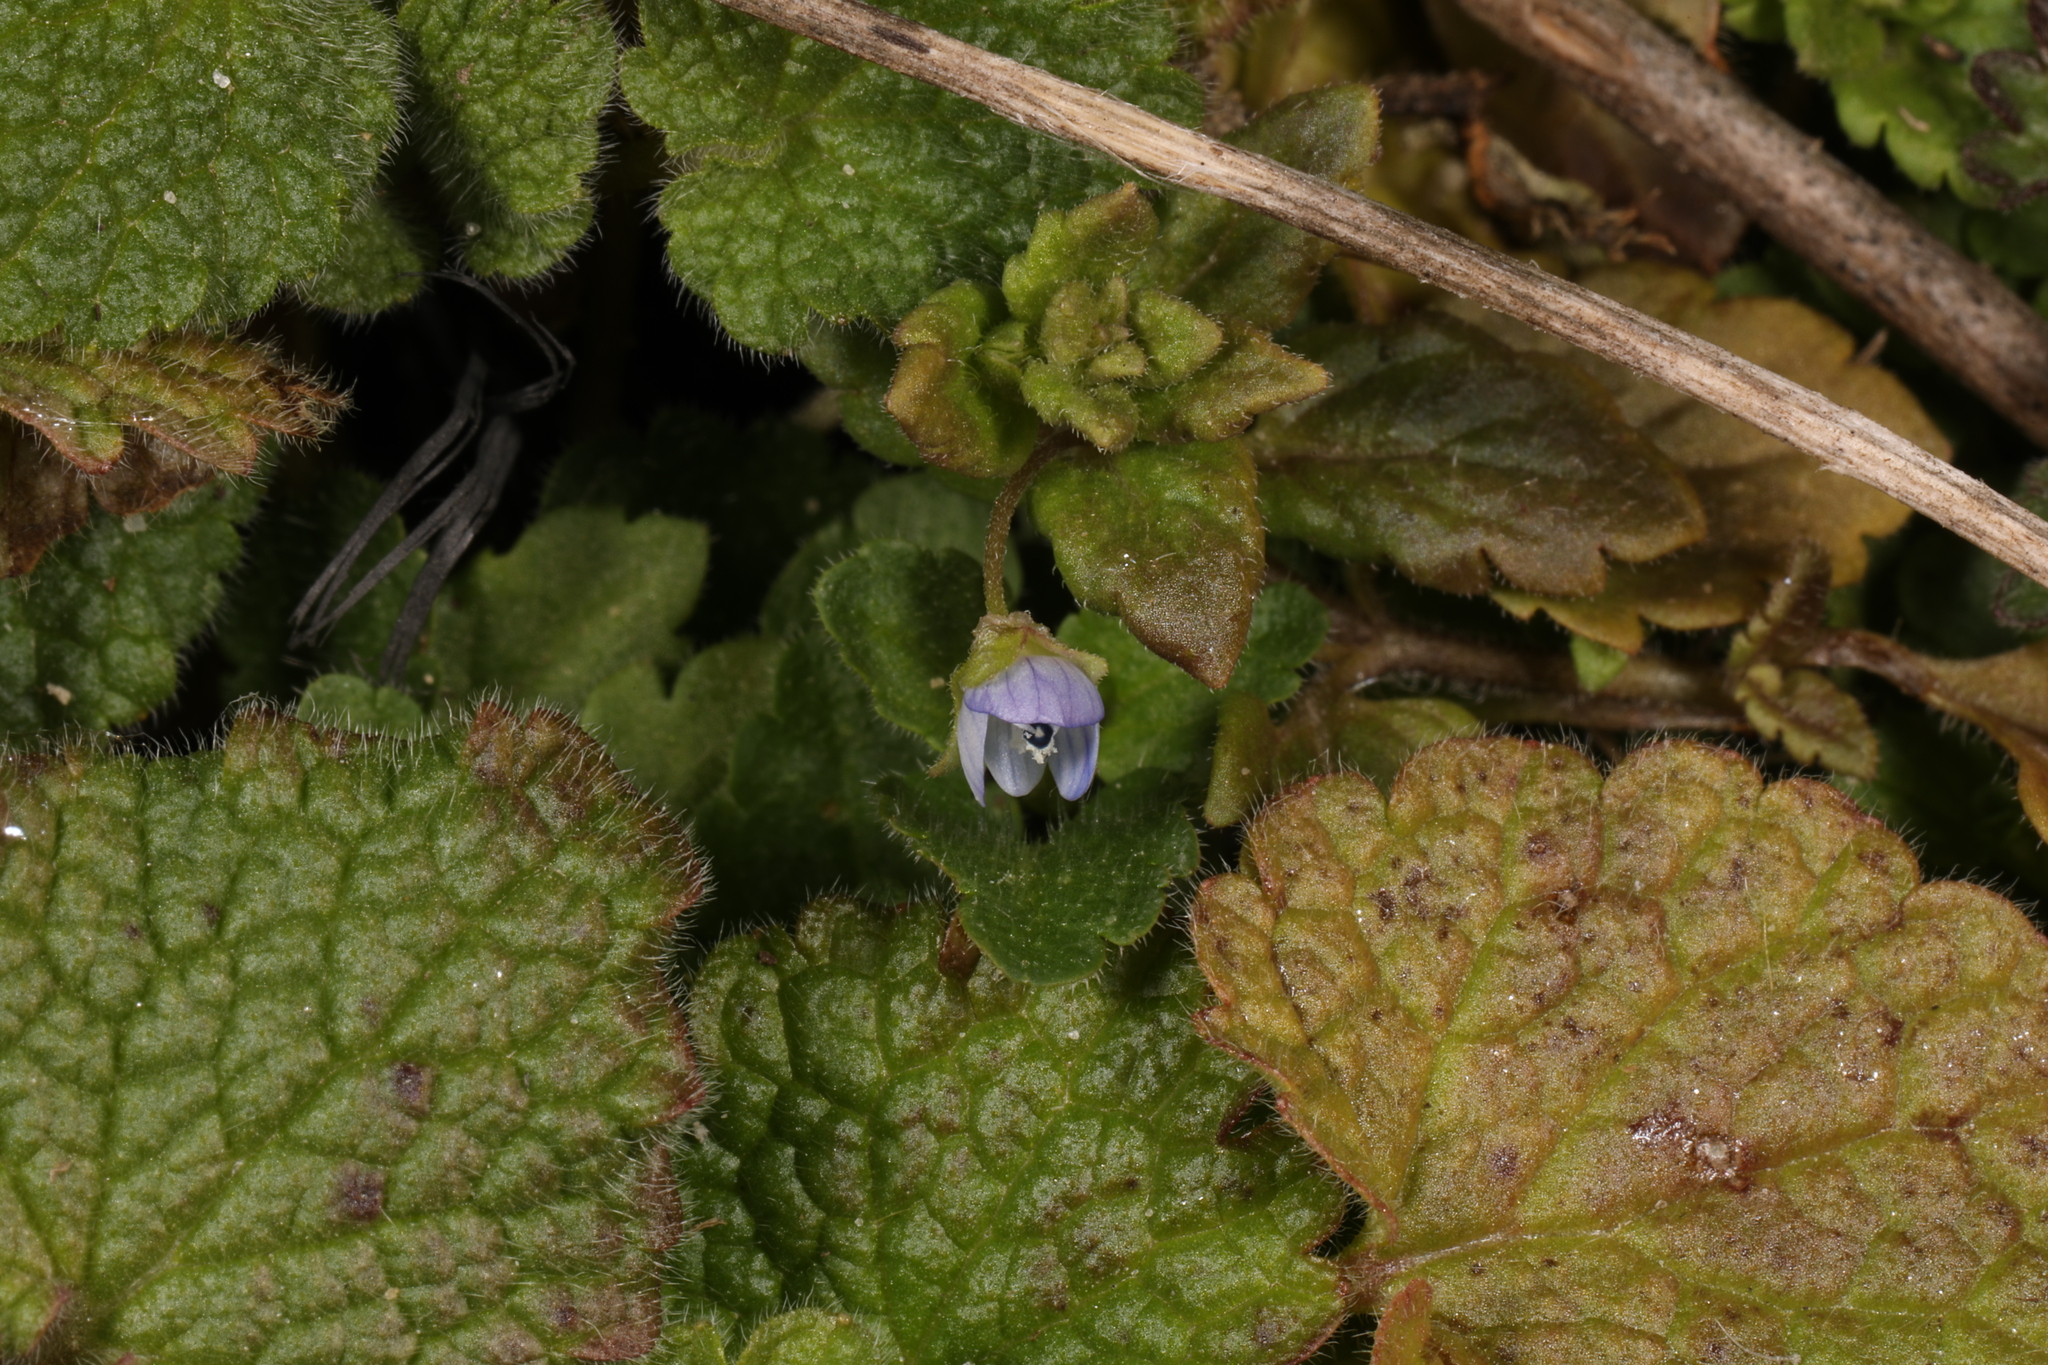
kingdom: Plantae
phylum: Tracheophyta
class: Magnoliopsida
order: Lamiales
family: Plantaginaceae
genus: Veronica
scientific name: Veronica persica
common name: Common field-speedwell
